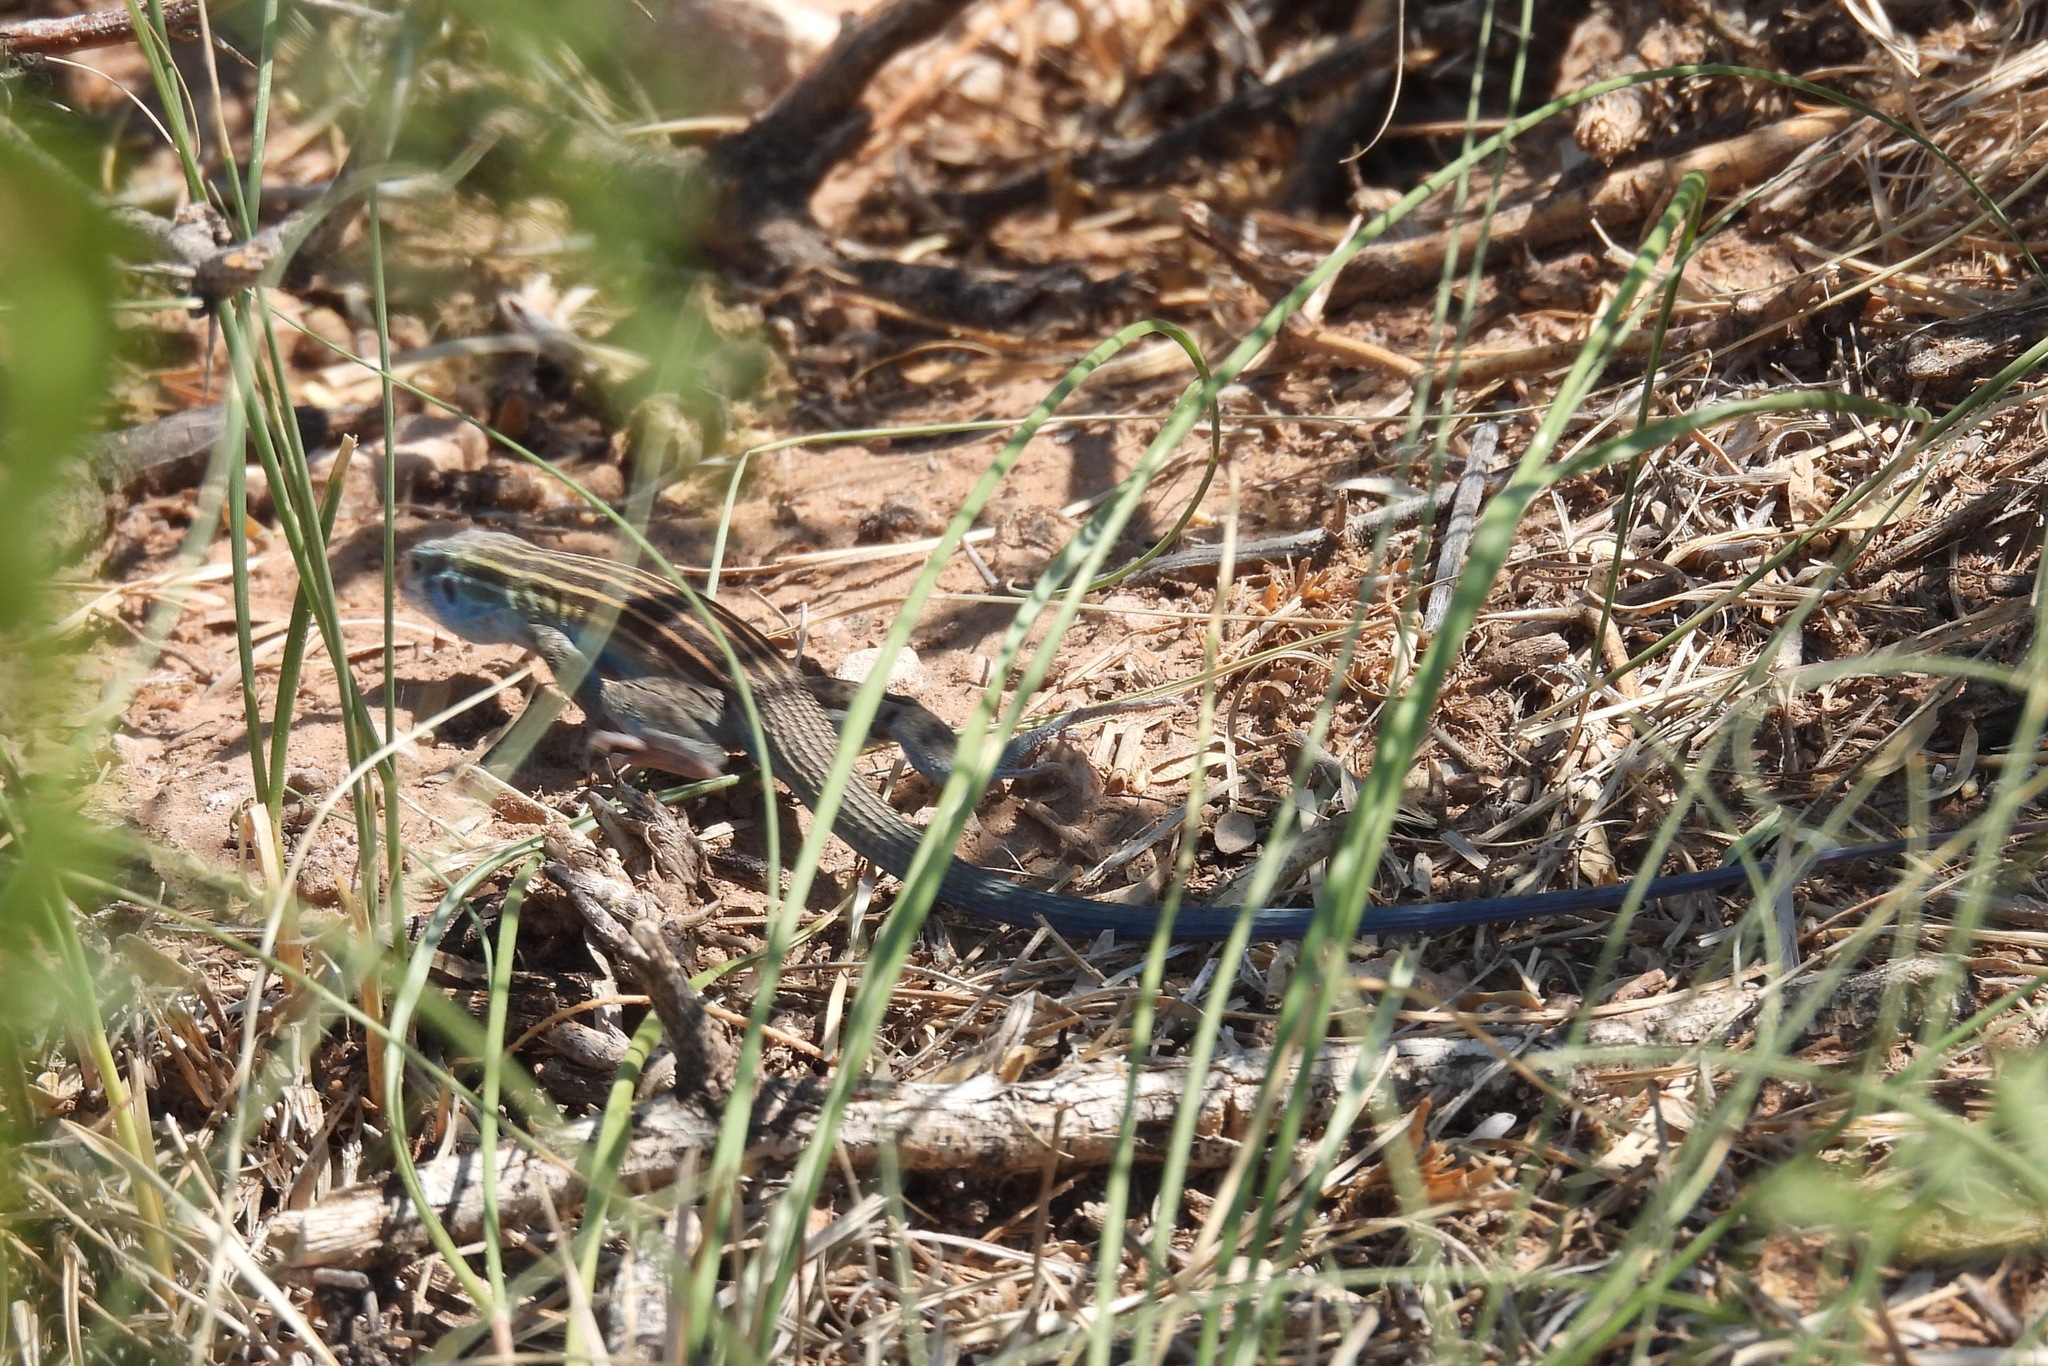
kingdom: Animalia
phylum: Chordata
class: Squamata
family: Teiidae
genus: Aspidoscelis
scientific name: Aspidoscelis inornatus
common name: Little striped whiptail
